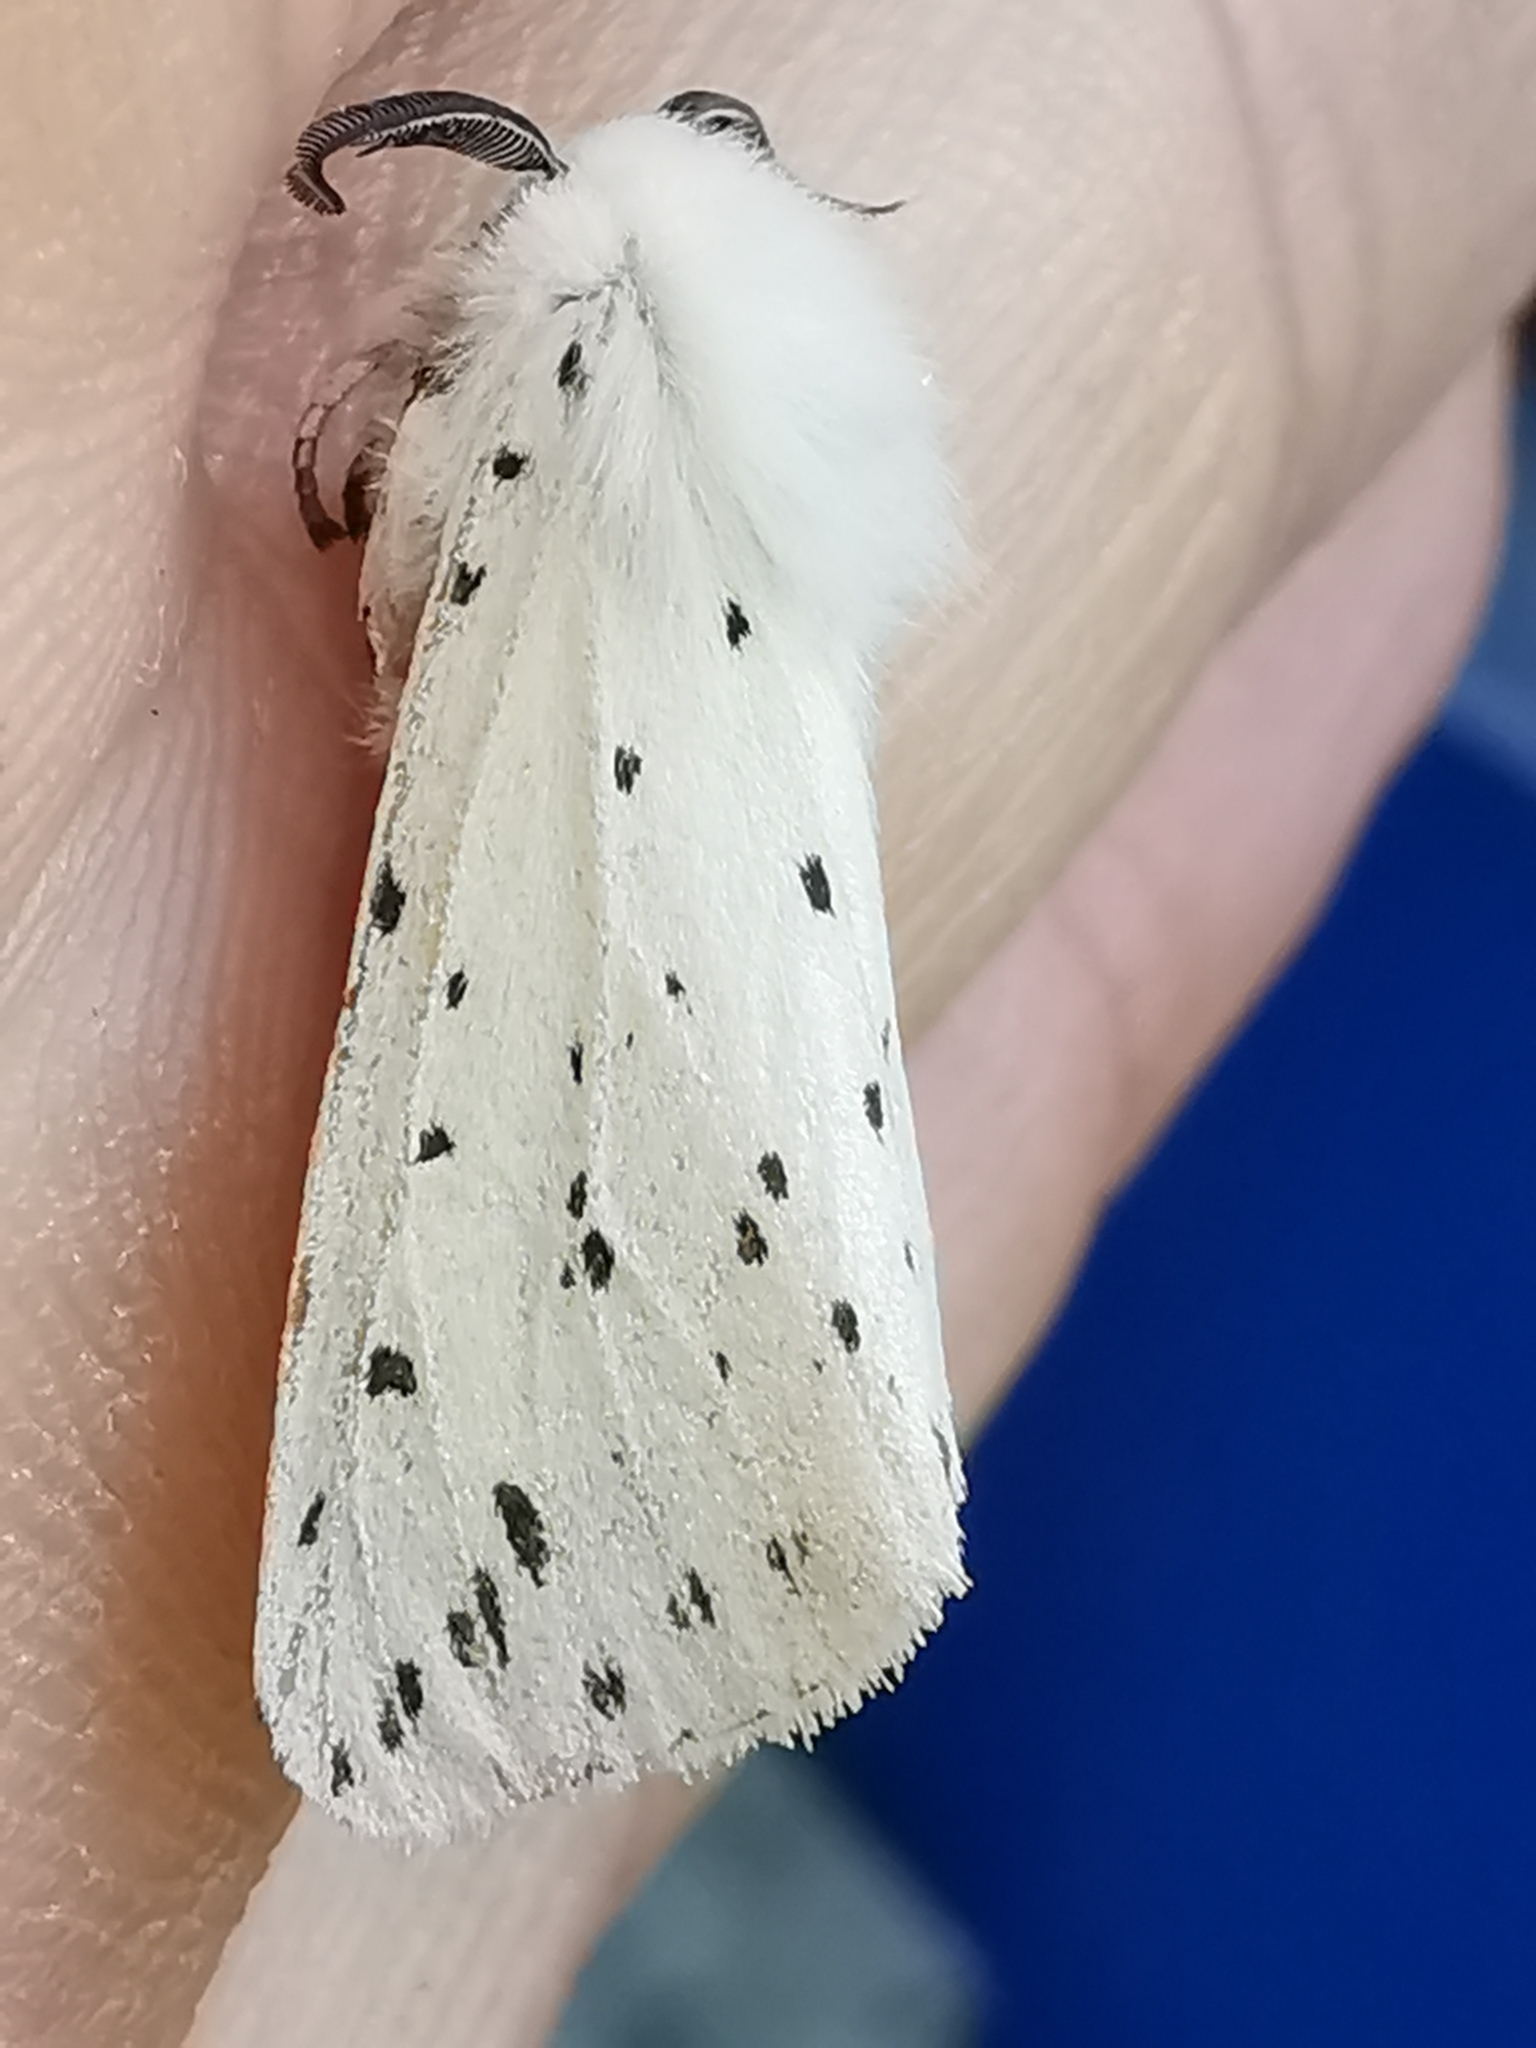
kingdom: Animalia
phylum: Arthropoda
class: Insecta
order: Lepidoptera
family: Erebidae
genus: Spilosoma
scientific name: Spilosoma lubricipeda
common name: White ermine
